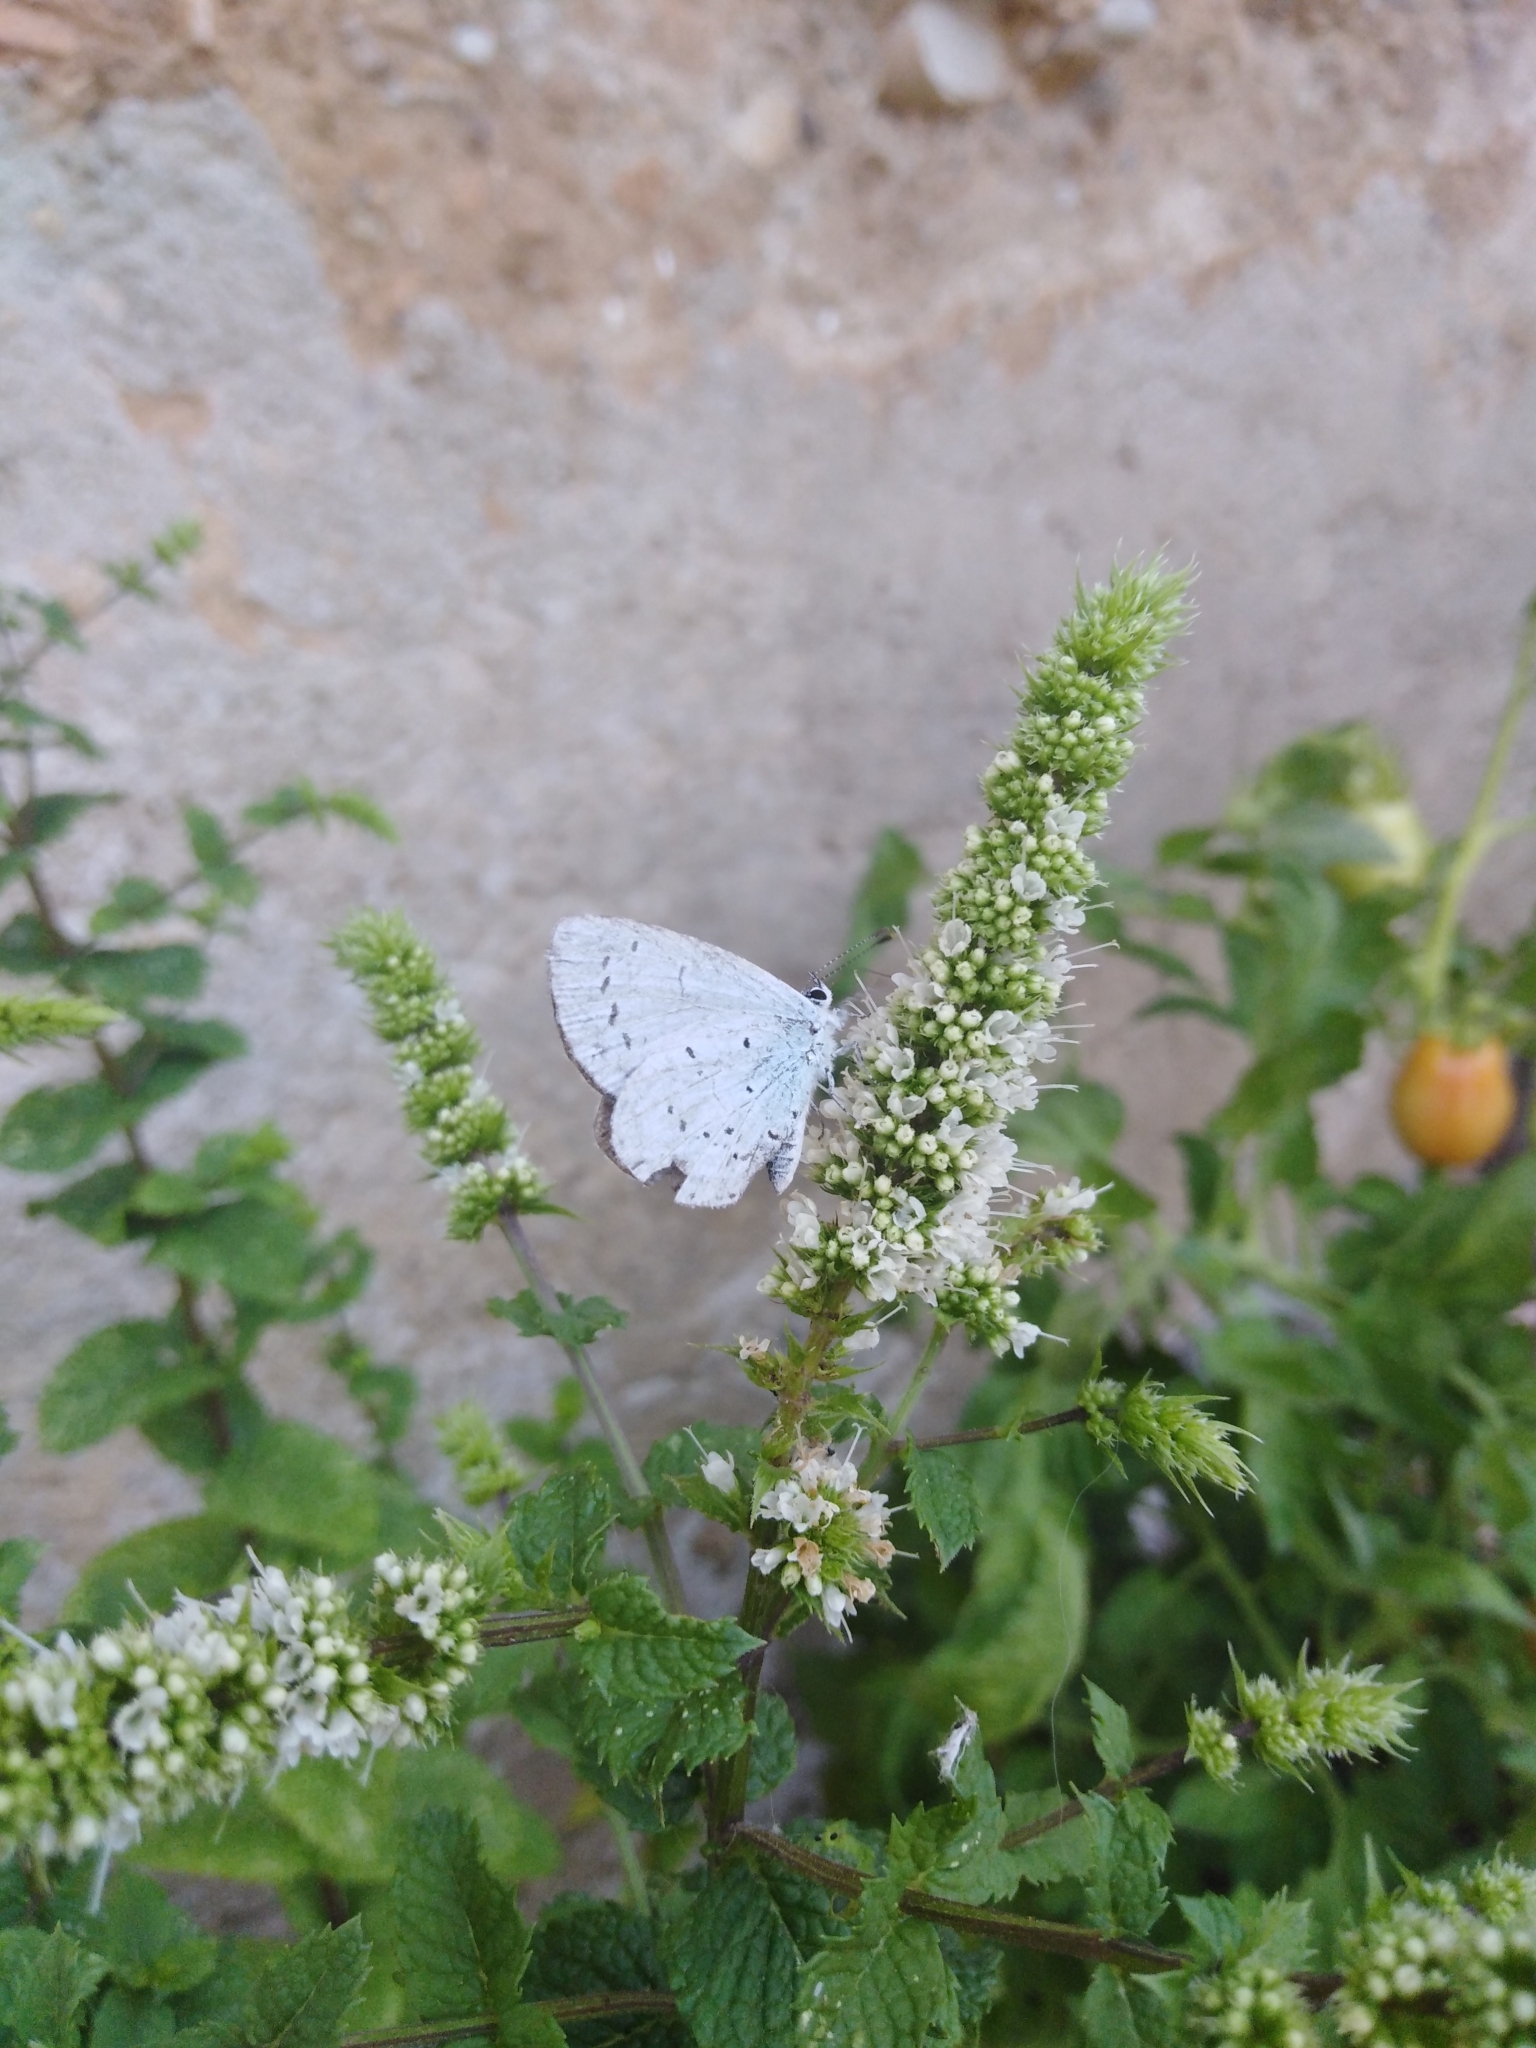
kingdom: Animalia
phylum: Arthropoda
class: Insecta
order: Lepidoptera
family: Lycaenidae
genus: Celastrina
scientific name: Celastrina argiolus
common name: Holly blue
